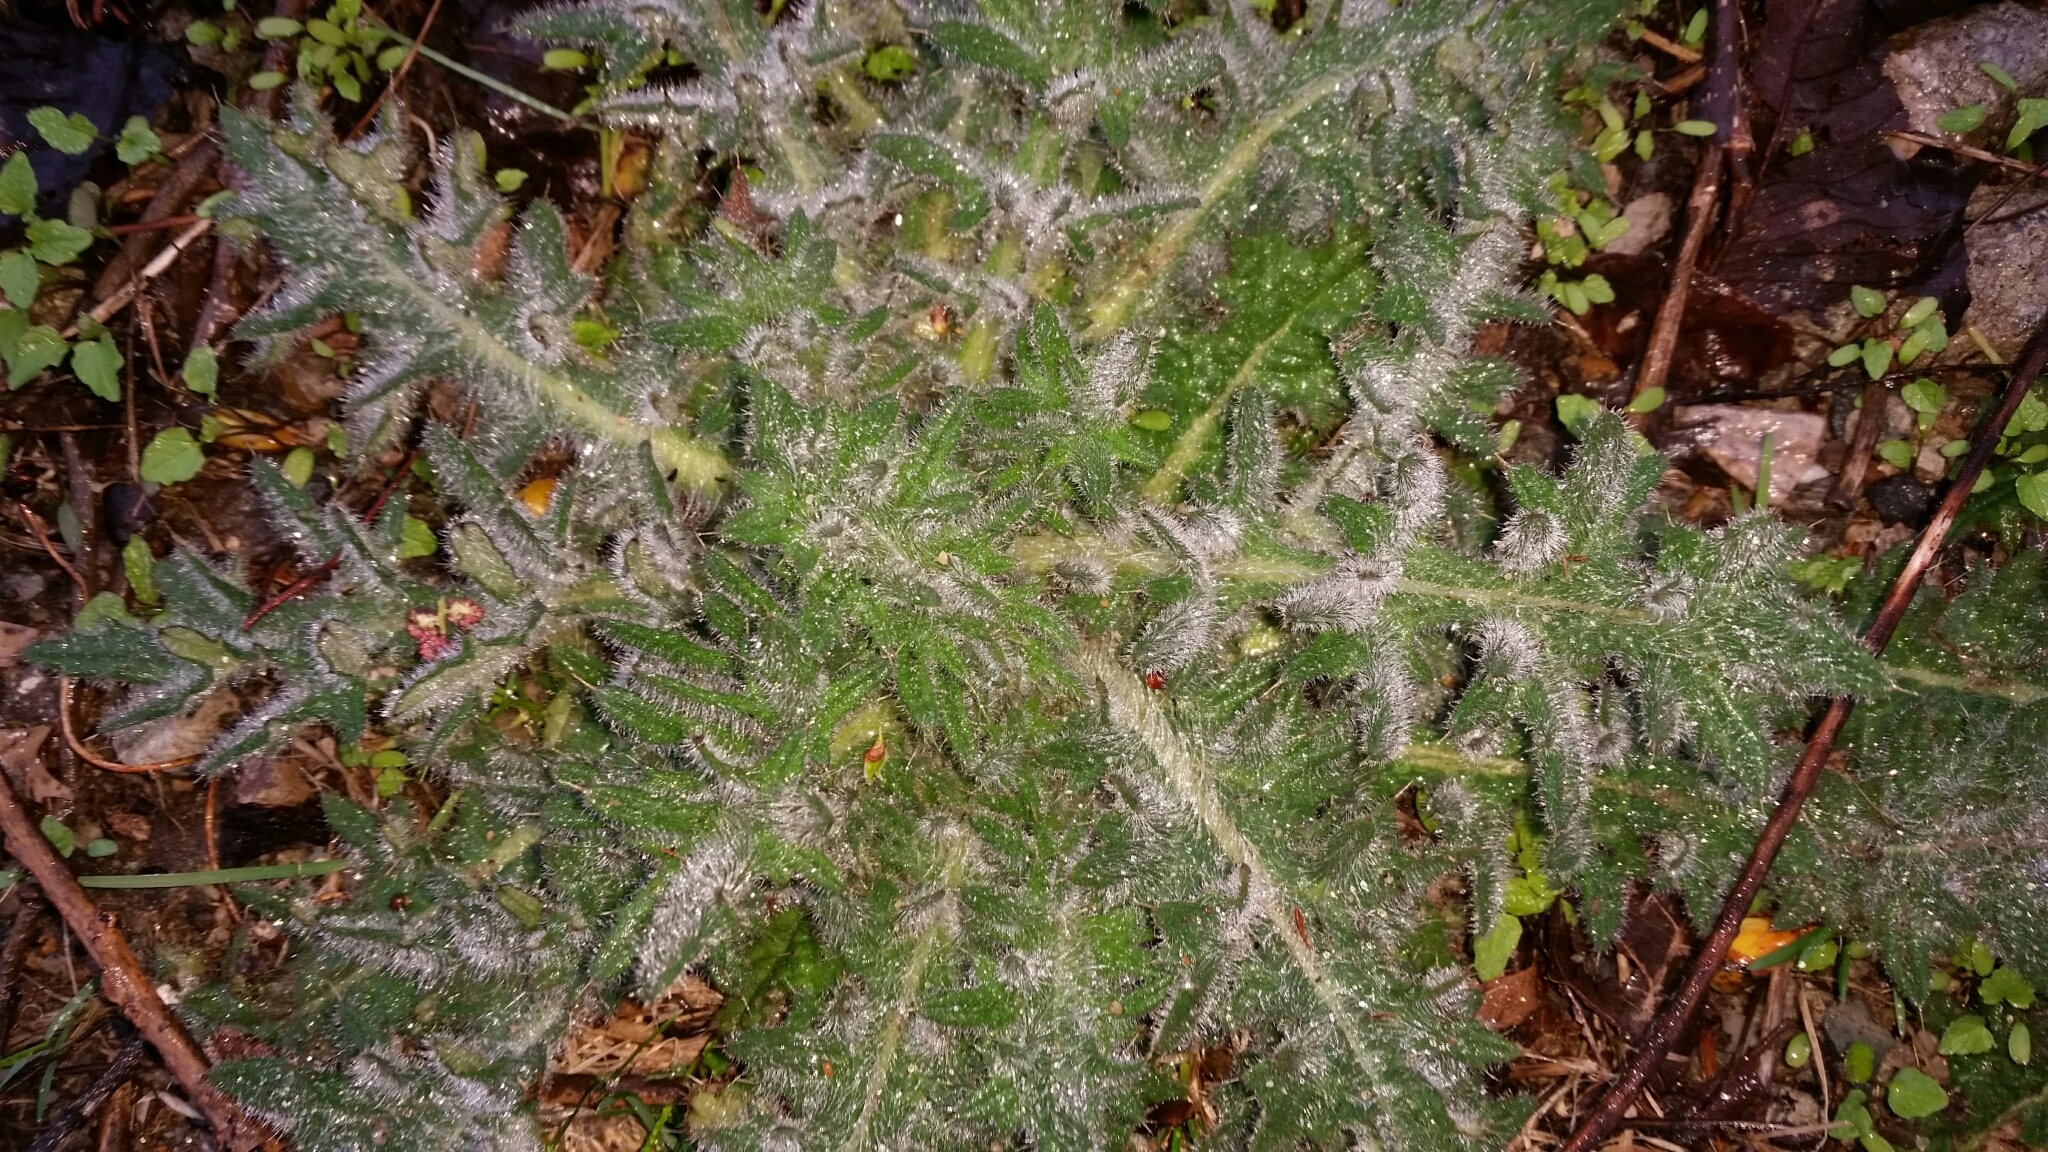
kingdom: Plantae
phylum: Tracheophyta
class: Magnoliopsida
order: Asterales
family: Asteraceae
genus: Cirsium
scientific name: Cirsium vulgare
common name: Bull thistle
